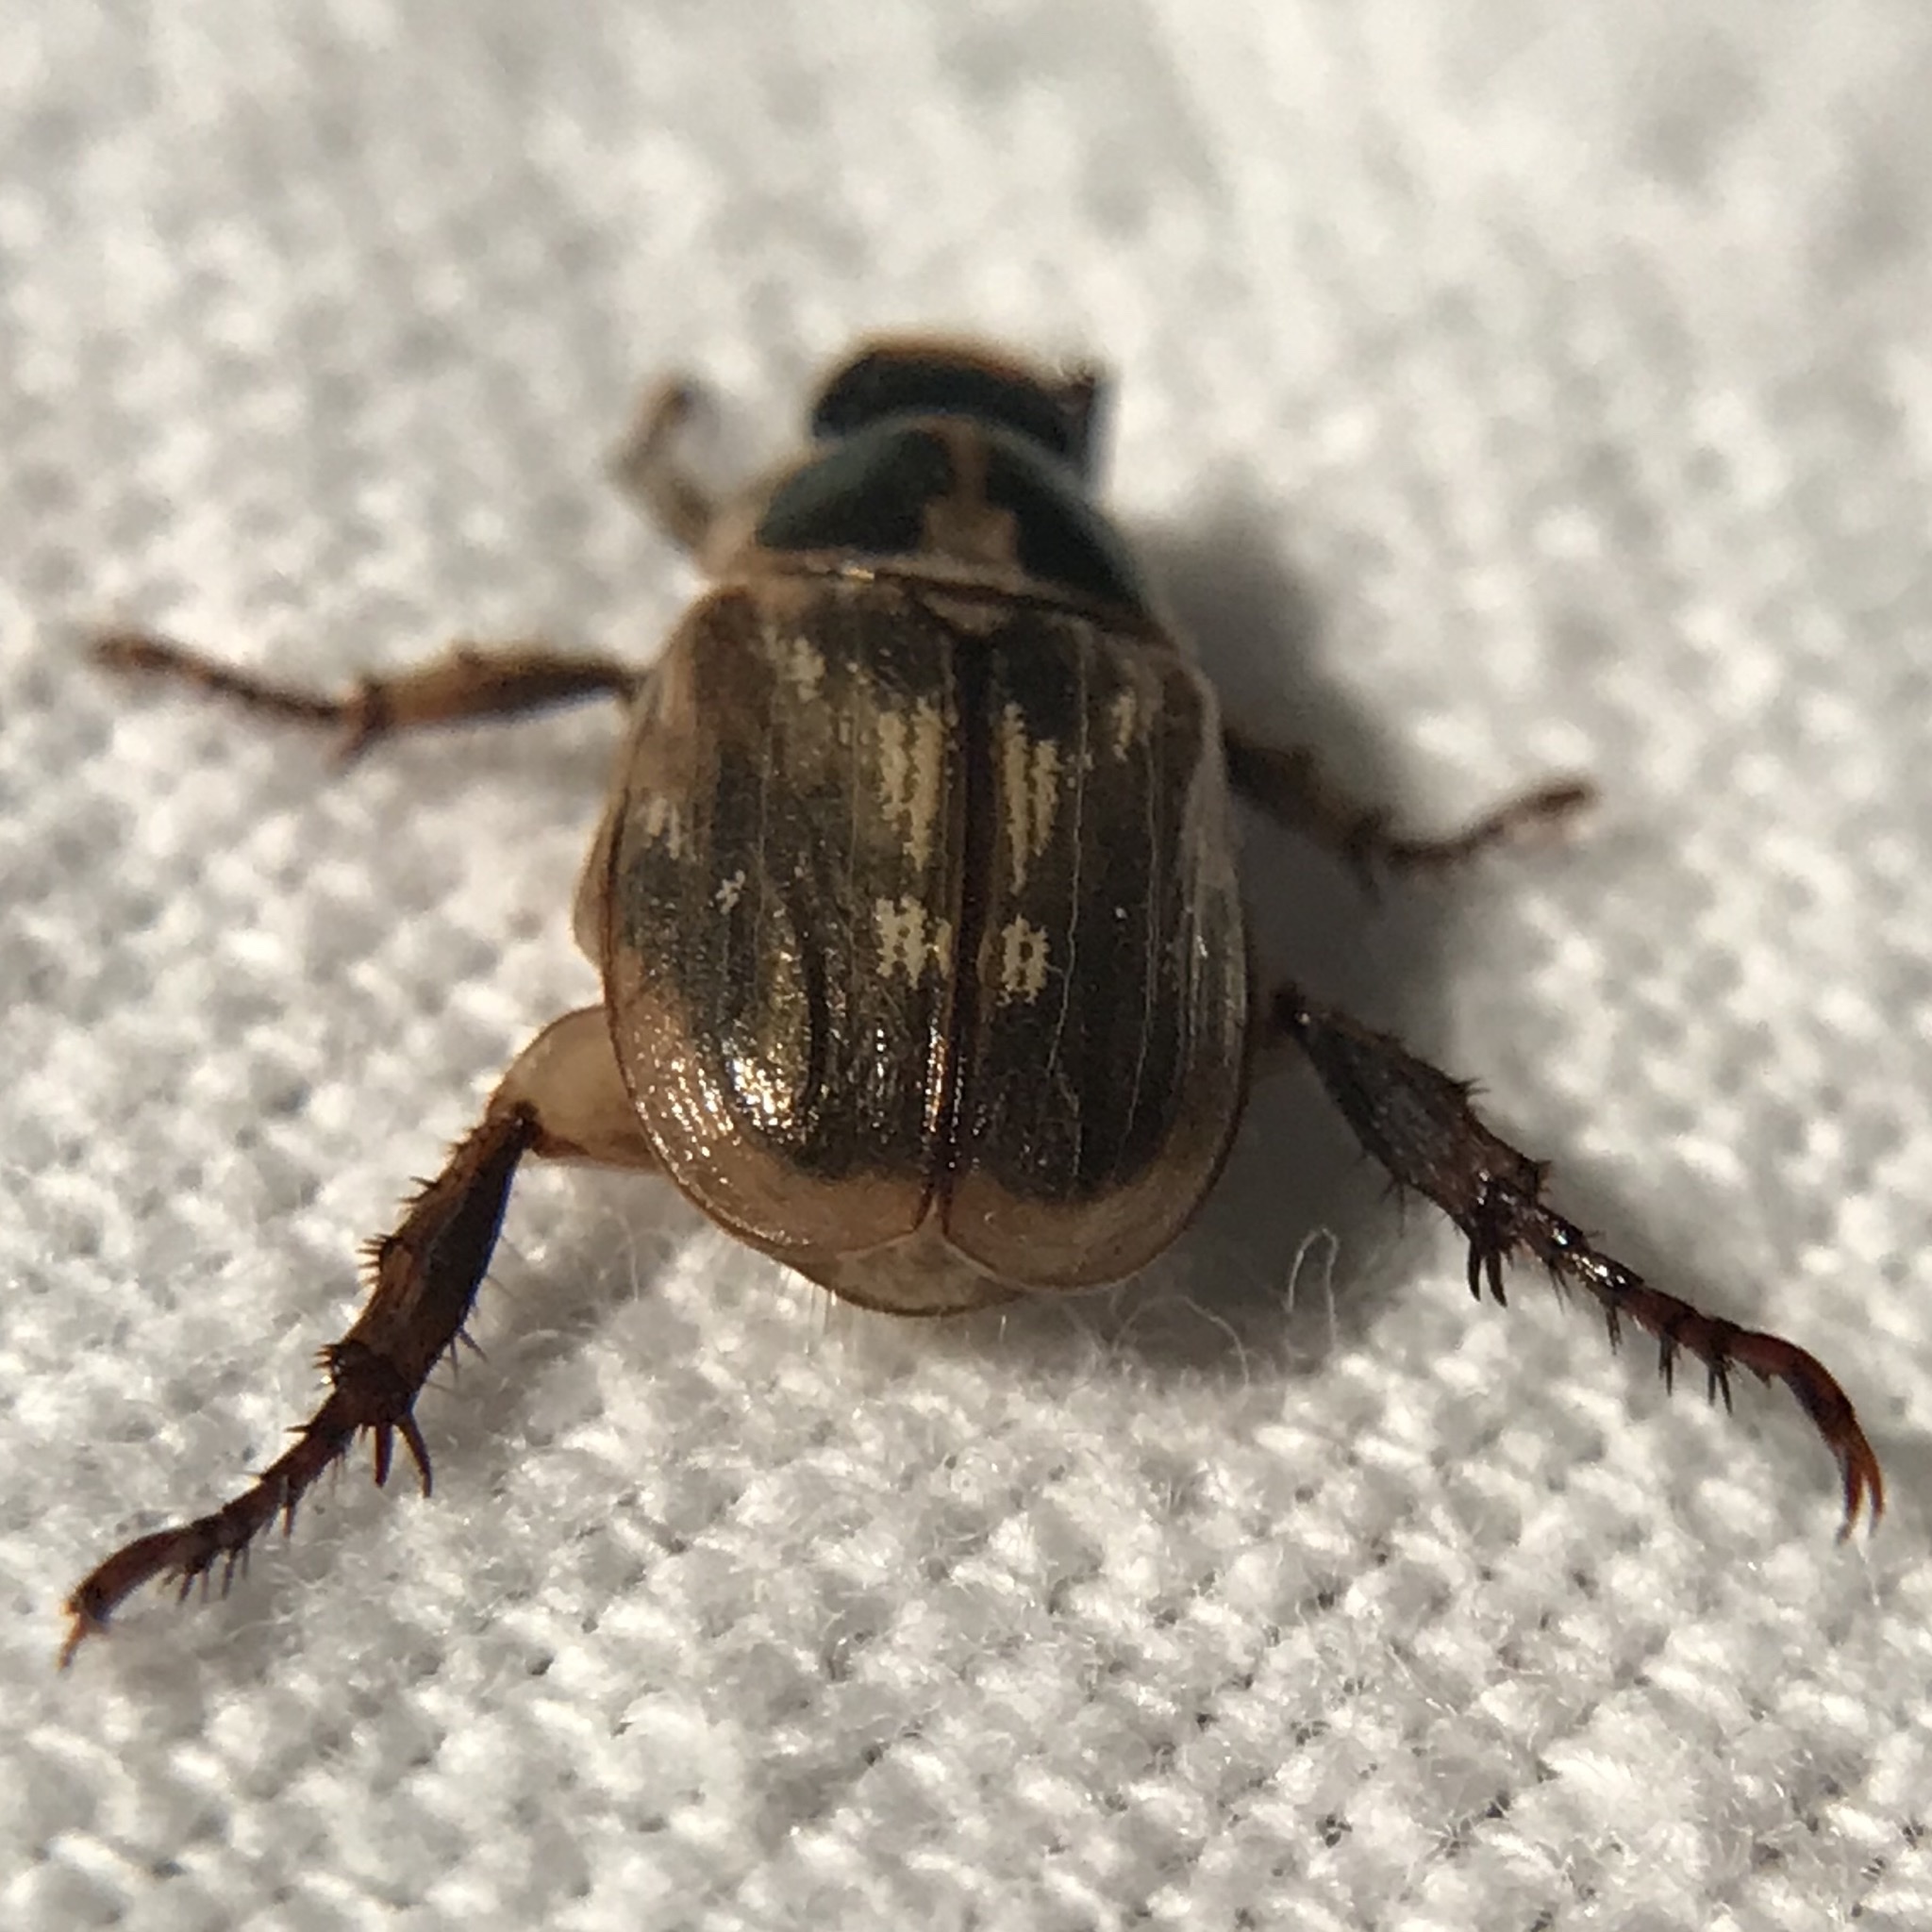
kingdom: Animalia
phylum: Arthropoda
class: Insecta
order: Coleoptera
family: Scarabaeidae
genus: Exomala
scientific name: Exomala orientalis
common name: Oriental beetle
